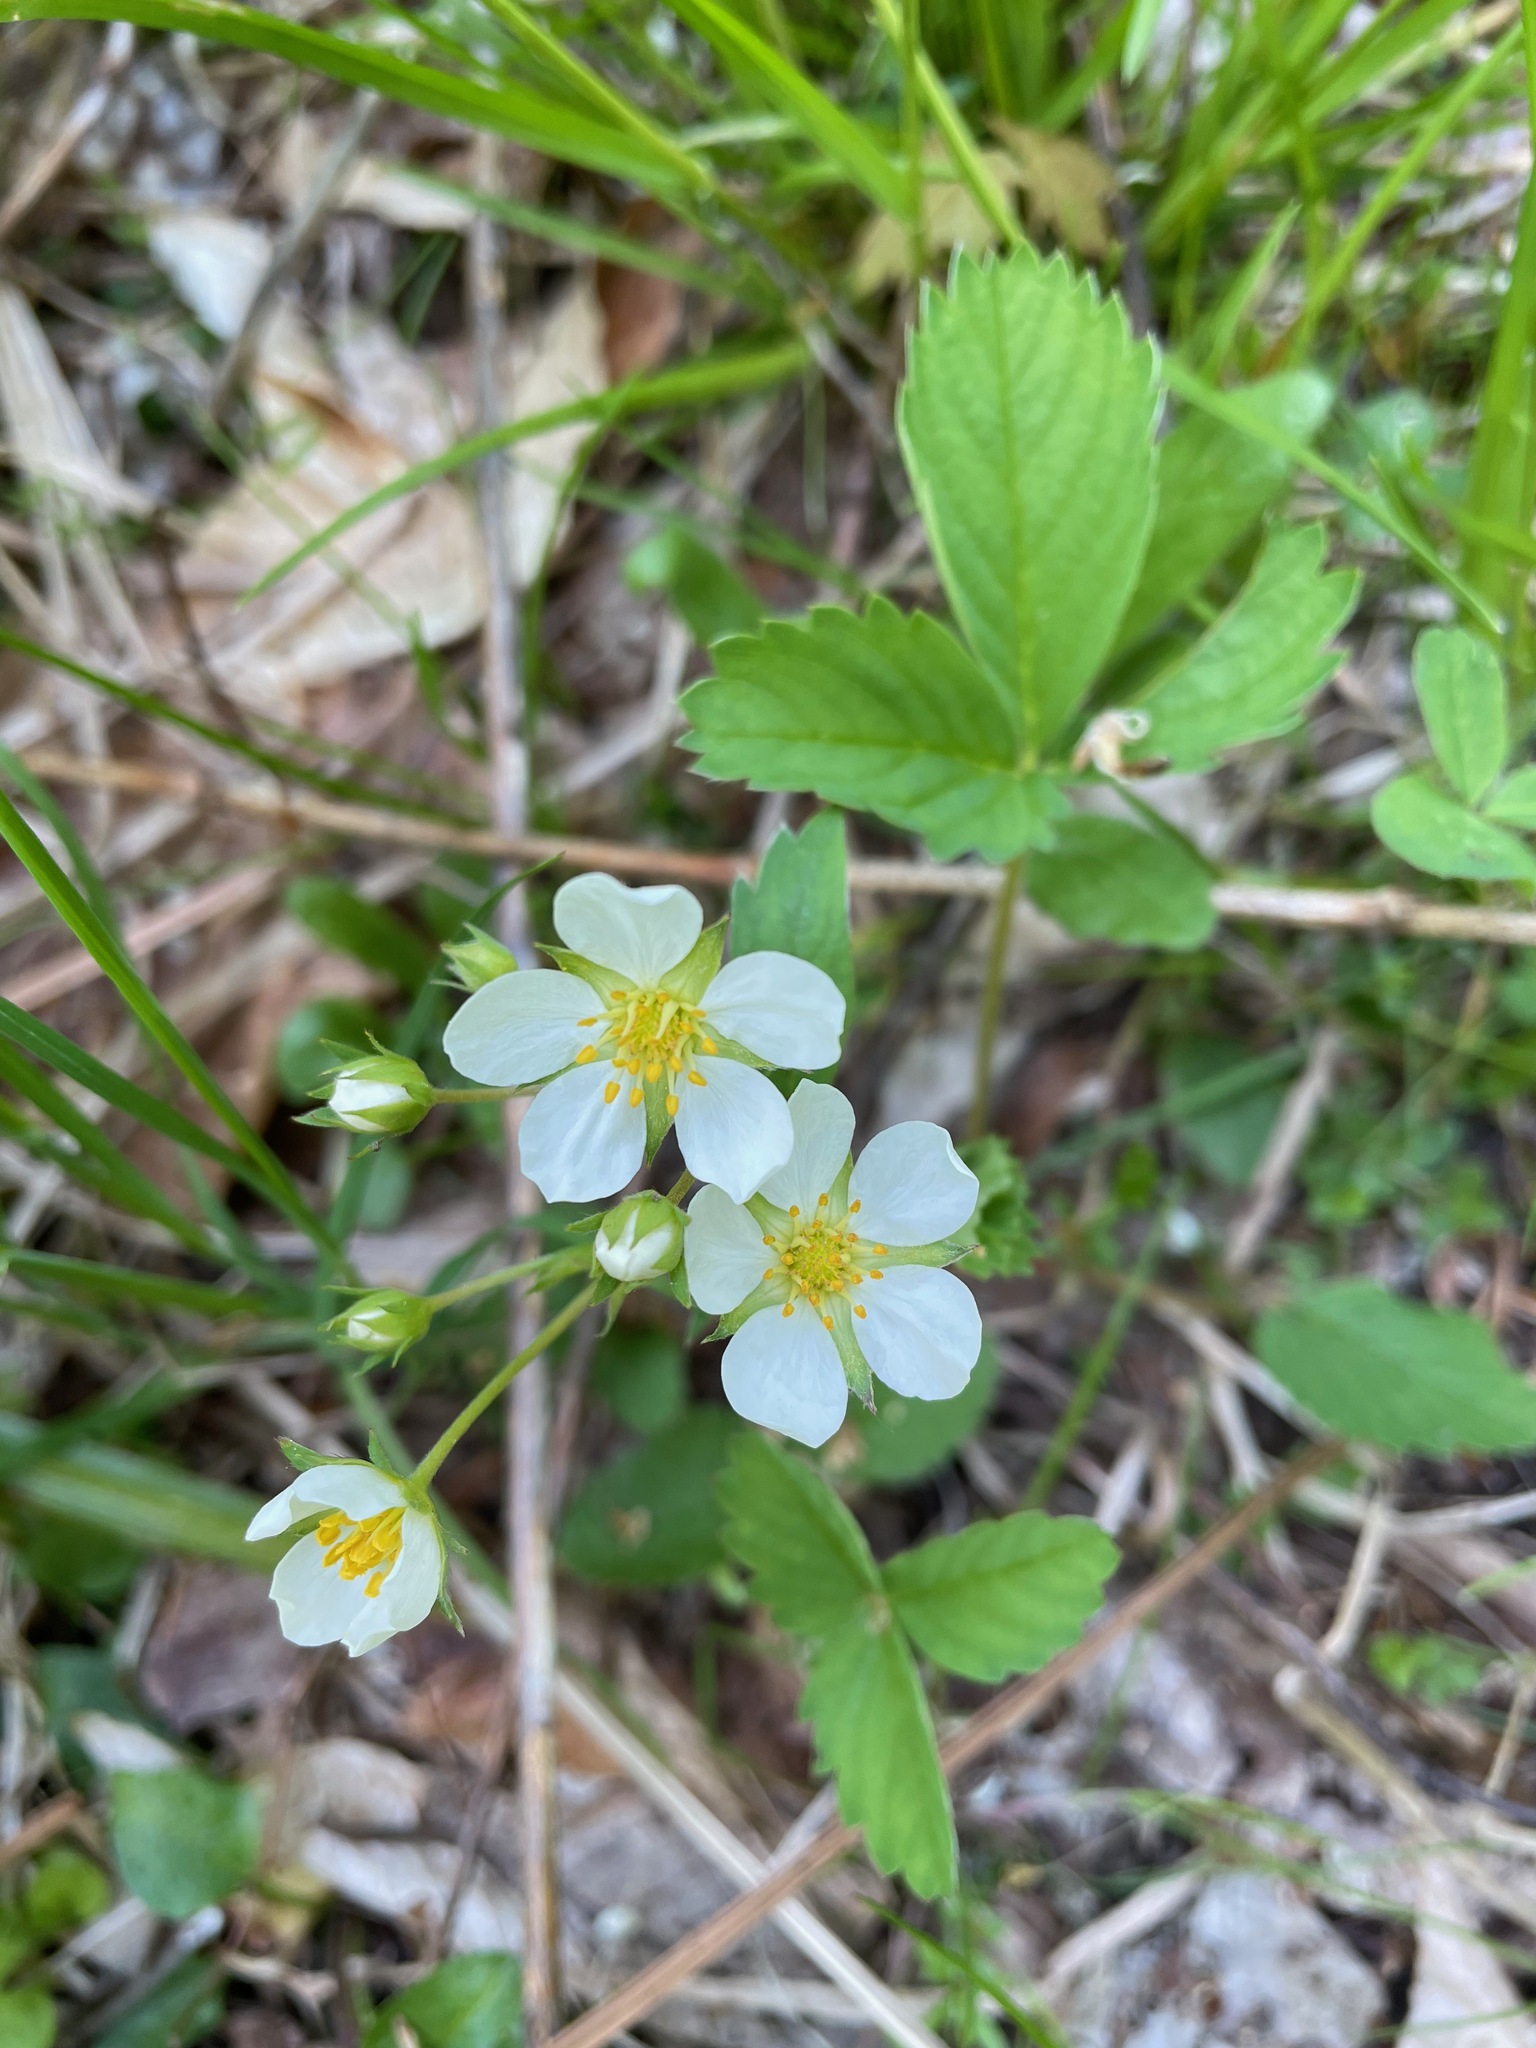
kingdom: Plantae
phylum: Tracheophyta
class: Magnoliopsida
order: Rosales
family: Rosaceae
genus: Fragaria
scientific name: Fragaria virginiana
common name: Thickleaved wild strawberry
